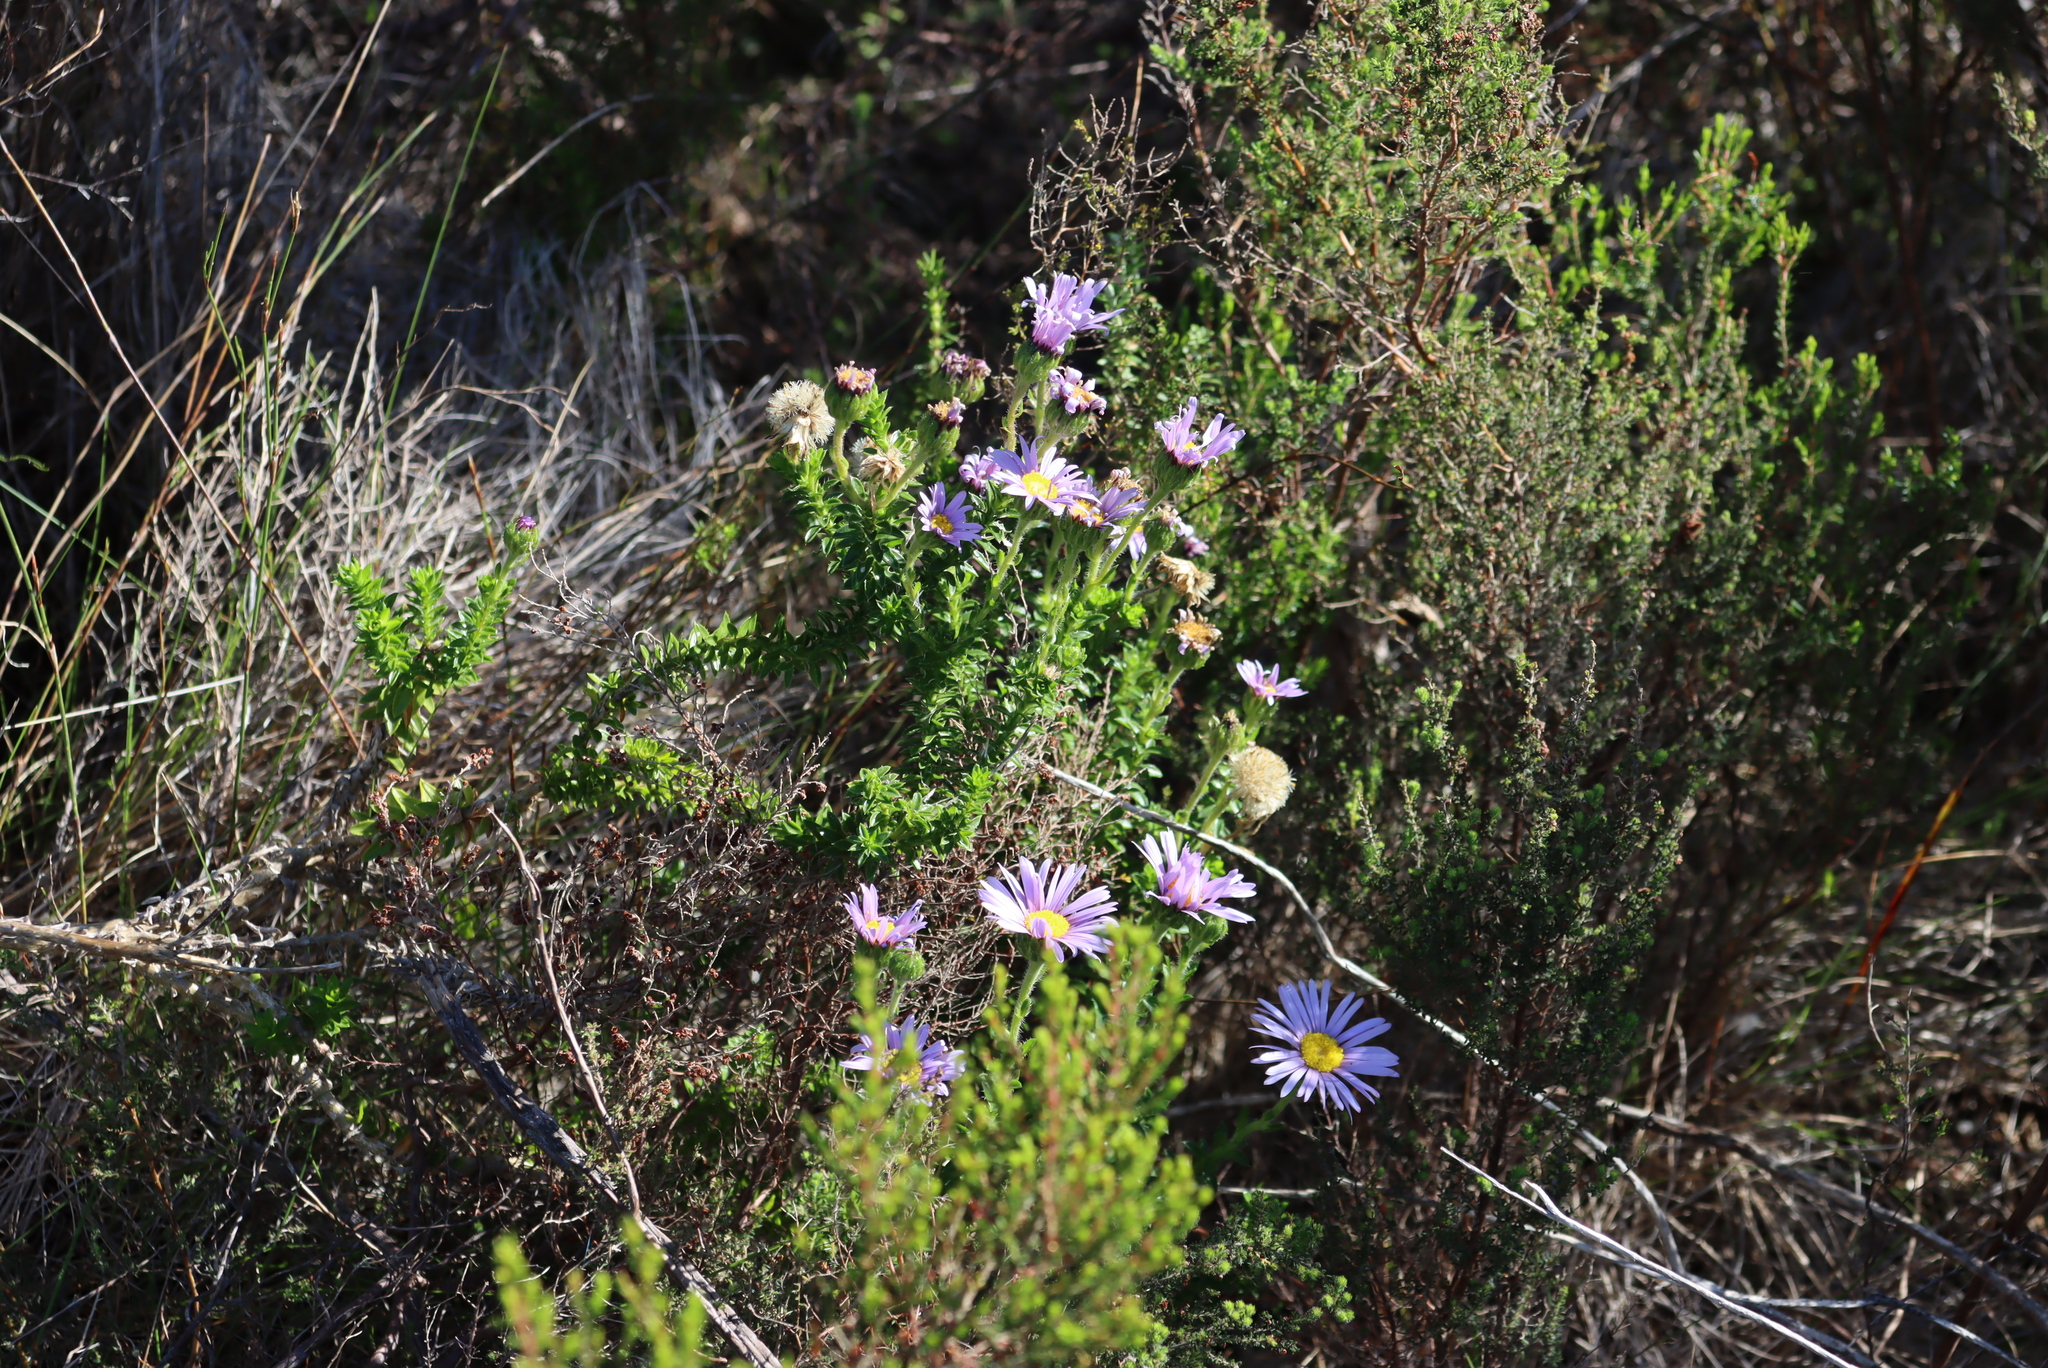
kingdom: Plantae
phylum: Tracheophyta
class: Magnoliopsida
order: Asterales
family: Asteraceae
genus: Felicia
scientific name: Felicia echinata
